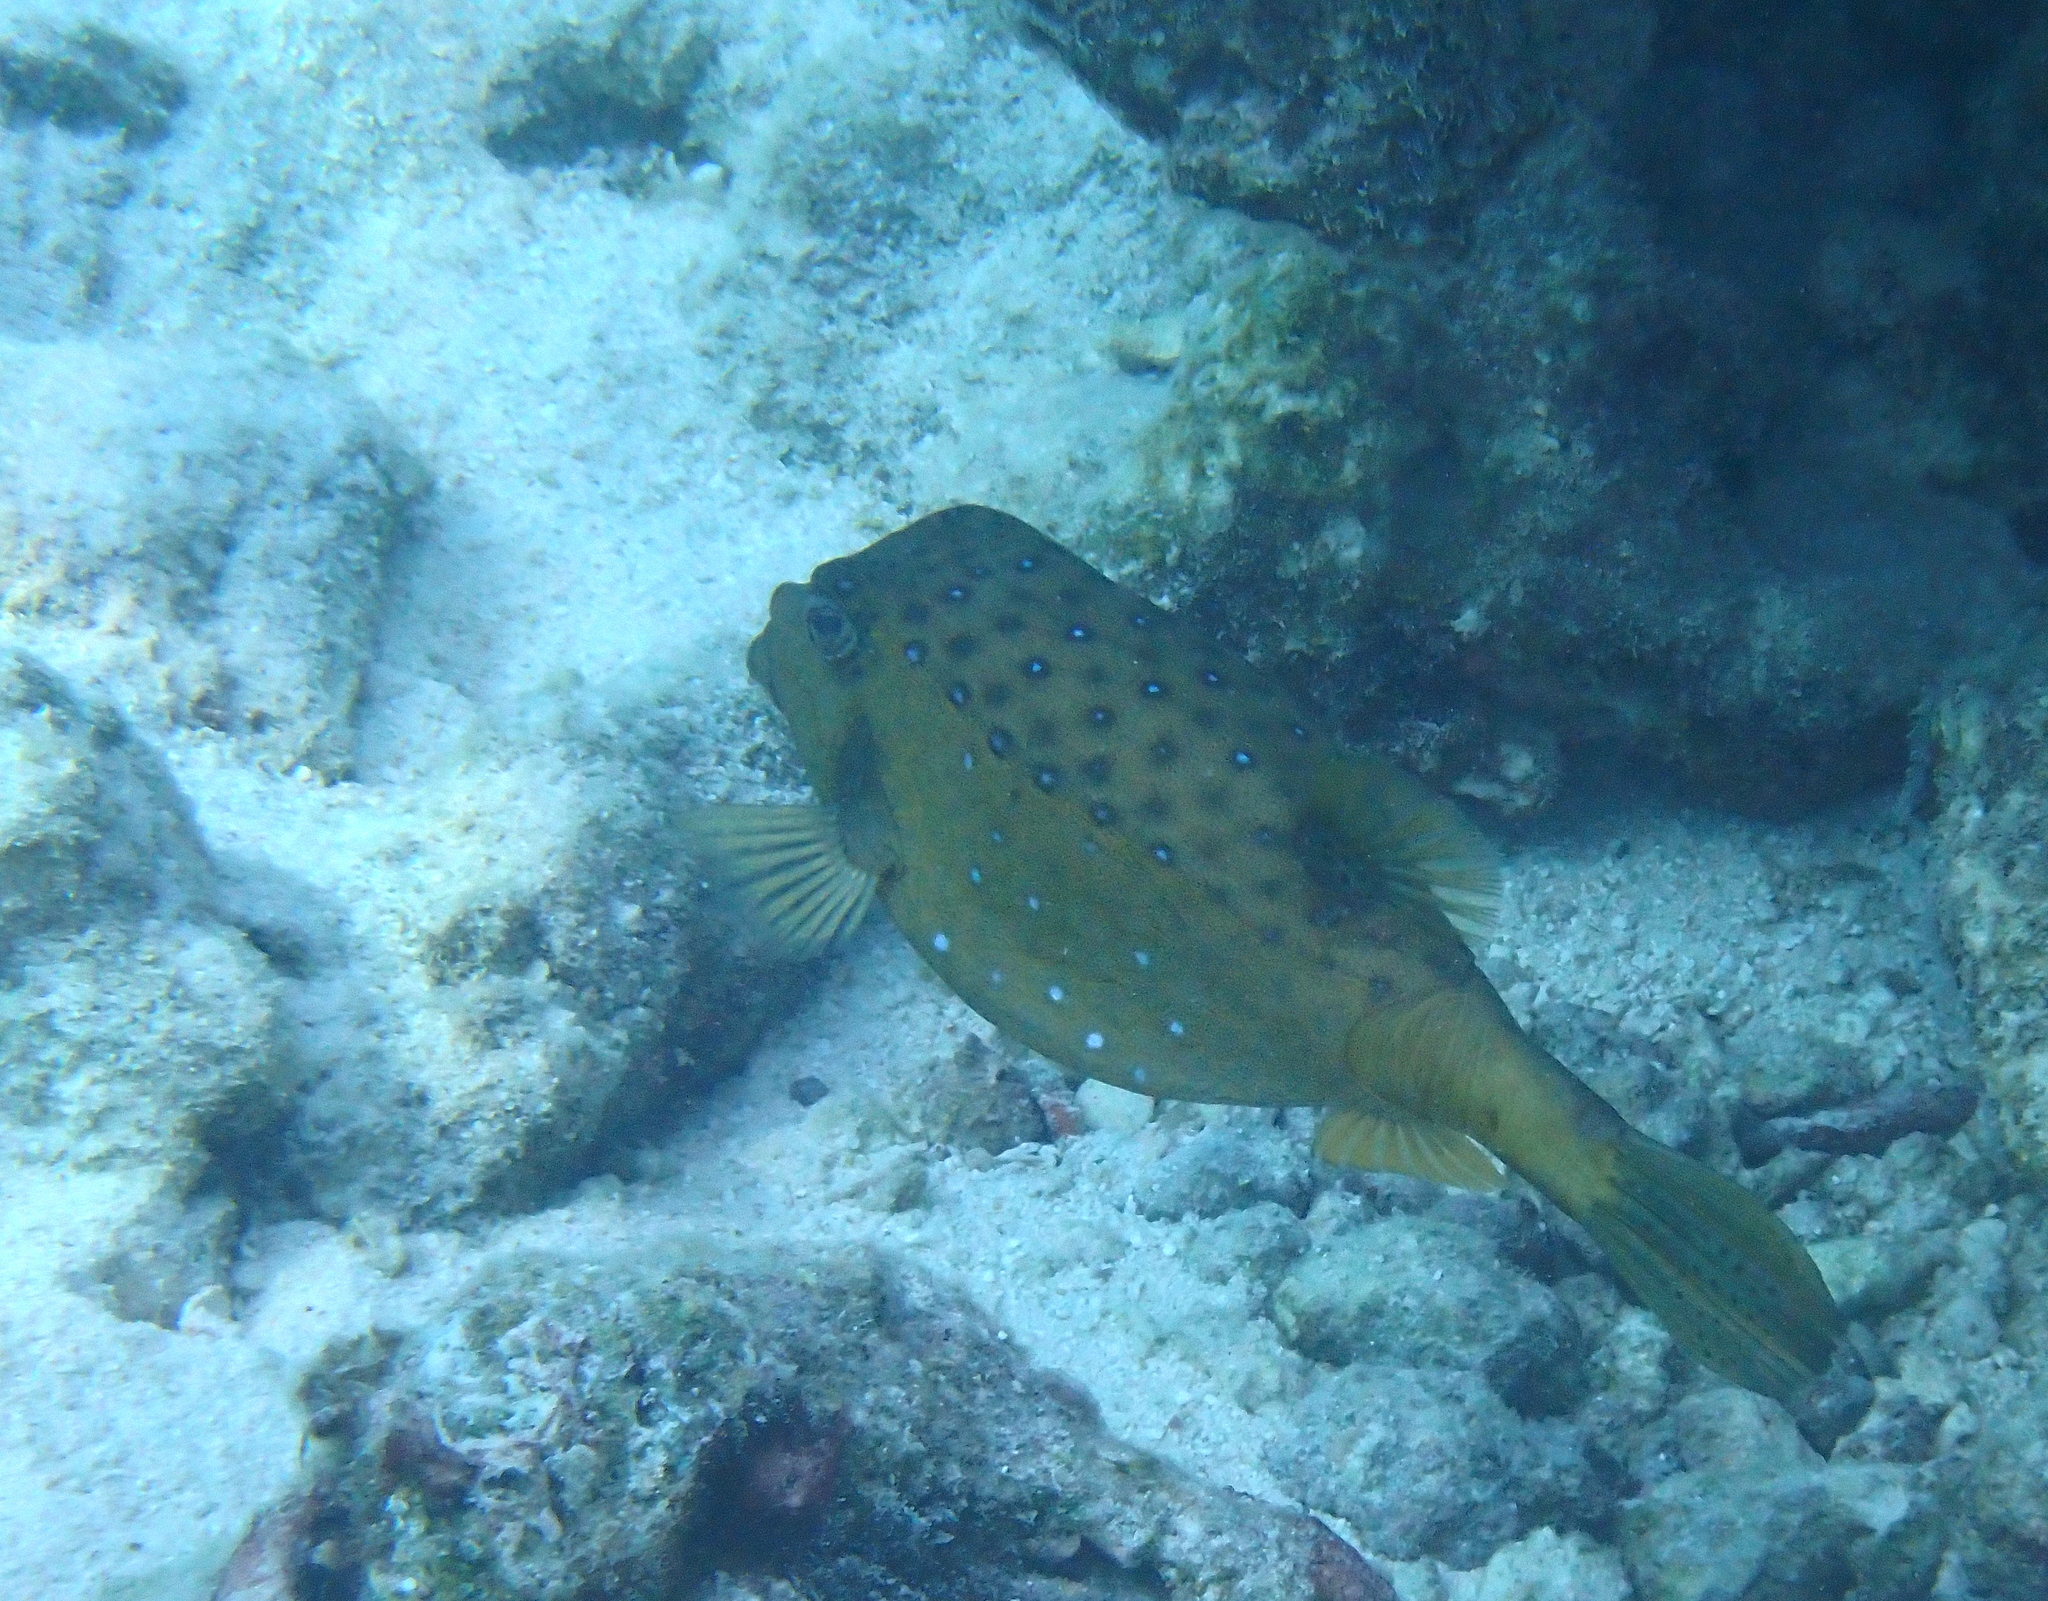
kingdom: Animalia
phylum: Chordata
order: Tetraodontiformes
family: Ostraciidae
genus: Ostracion
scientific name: Ostracion cubicus
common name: Cube trunkfish
